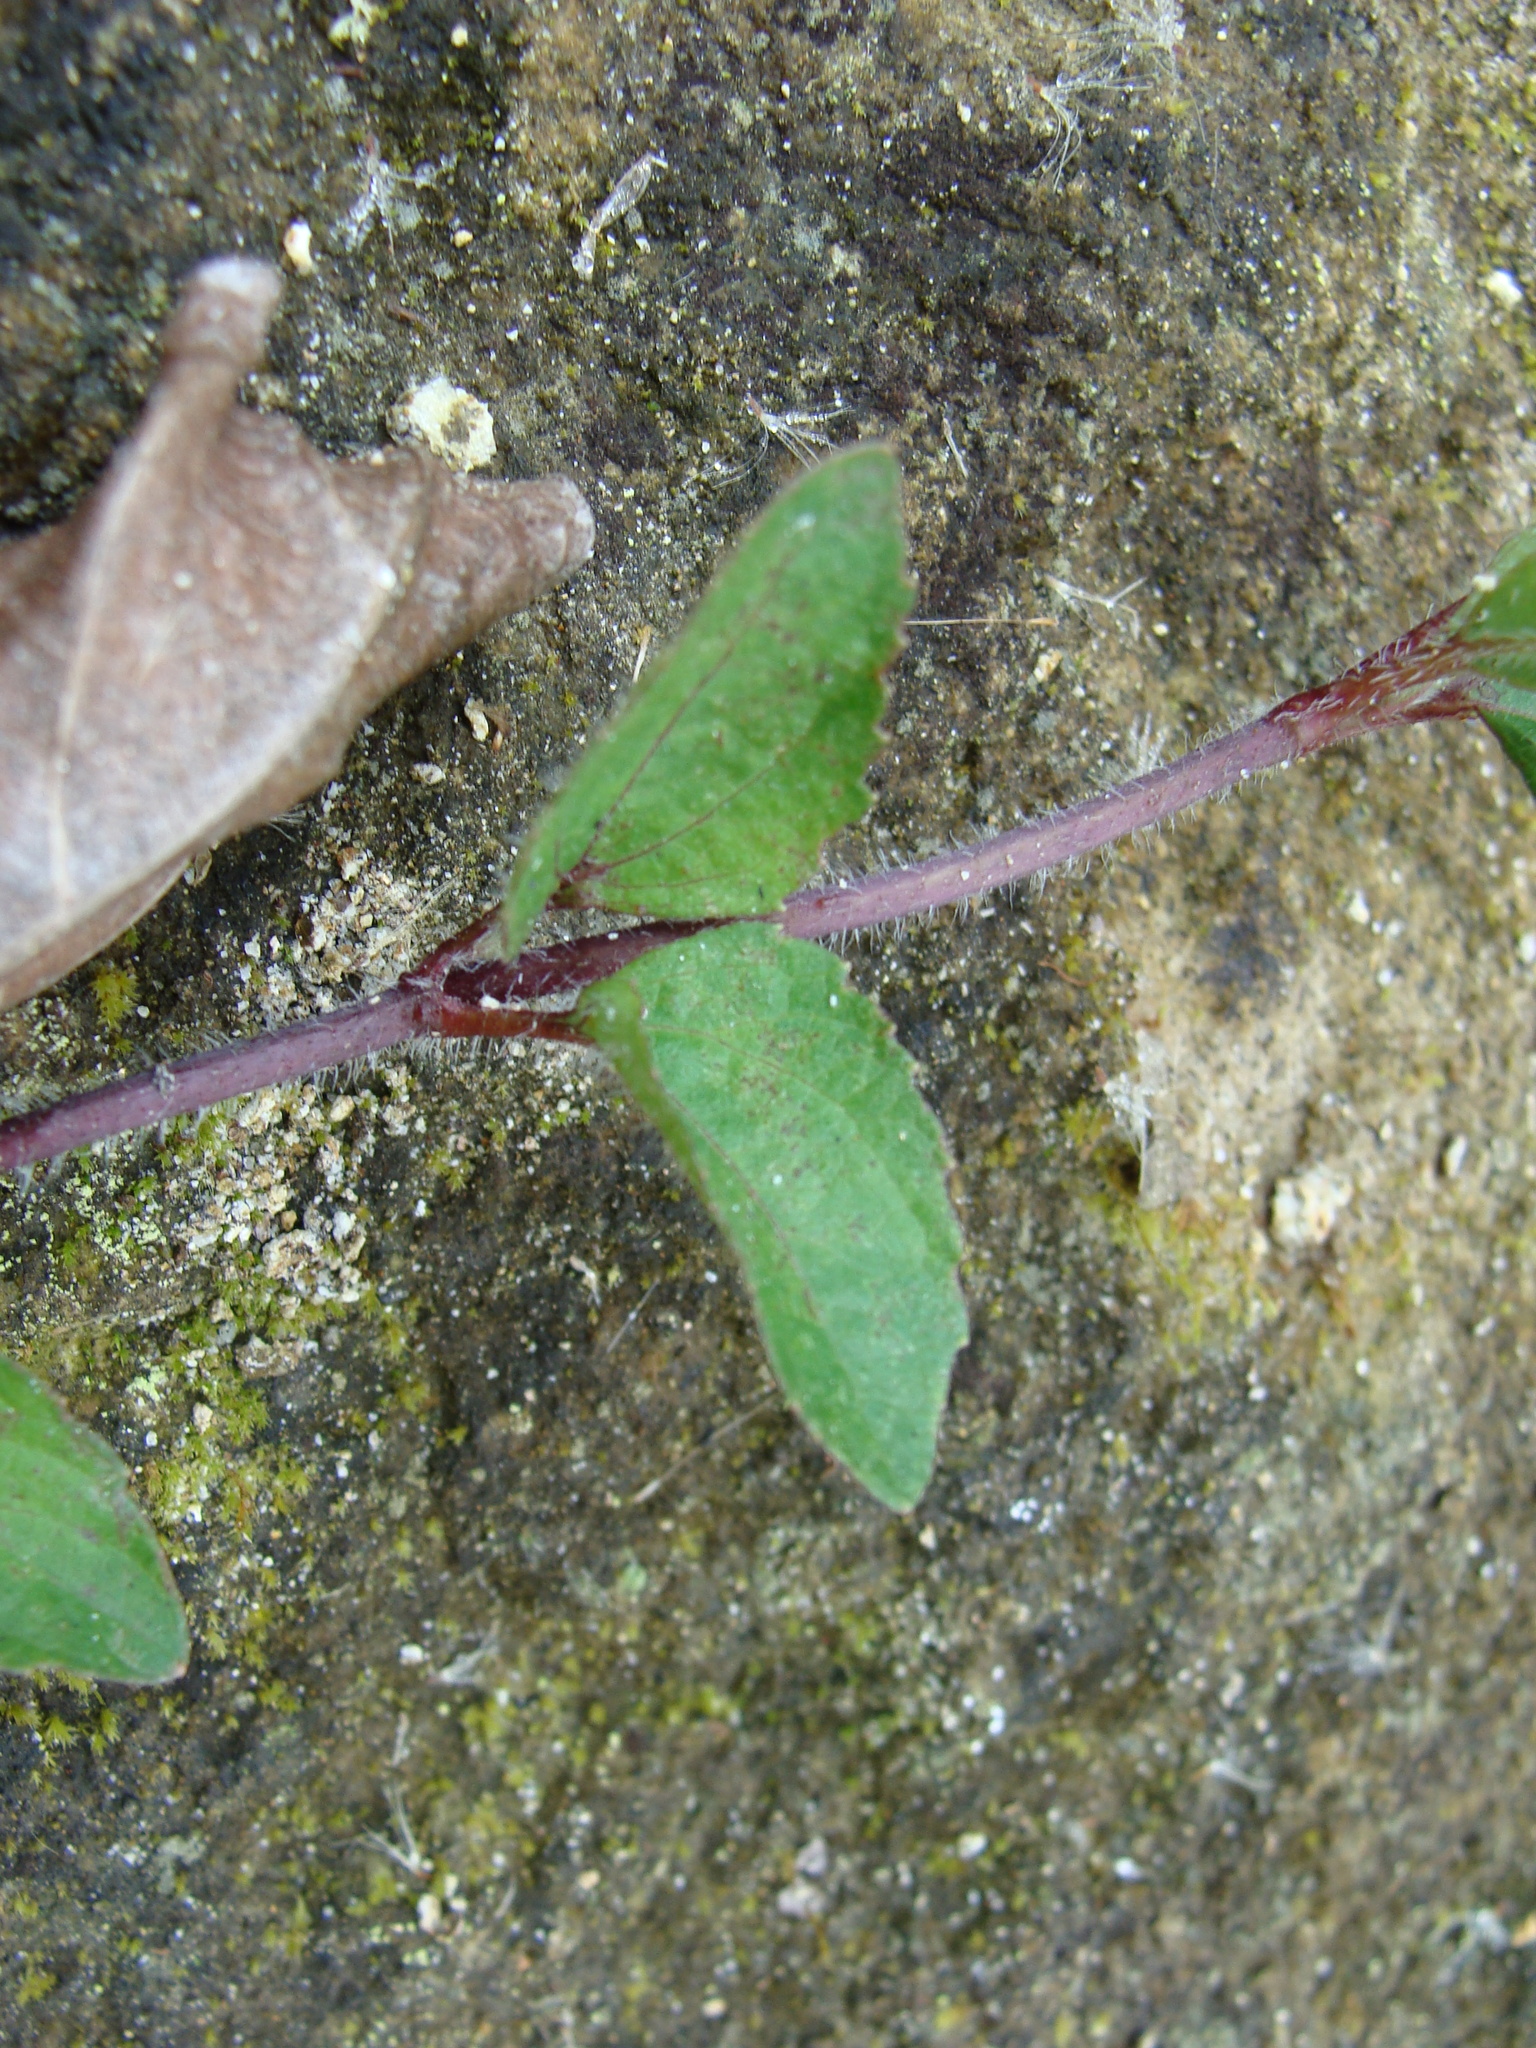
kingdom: Plantae
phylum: Tracheophyta
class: Magnoliopsida
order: Asterales
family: Asteraceae
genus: Acmella
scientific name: Acmella repens
